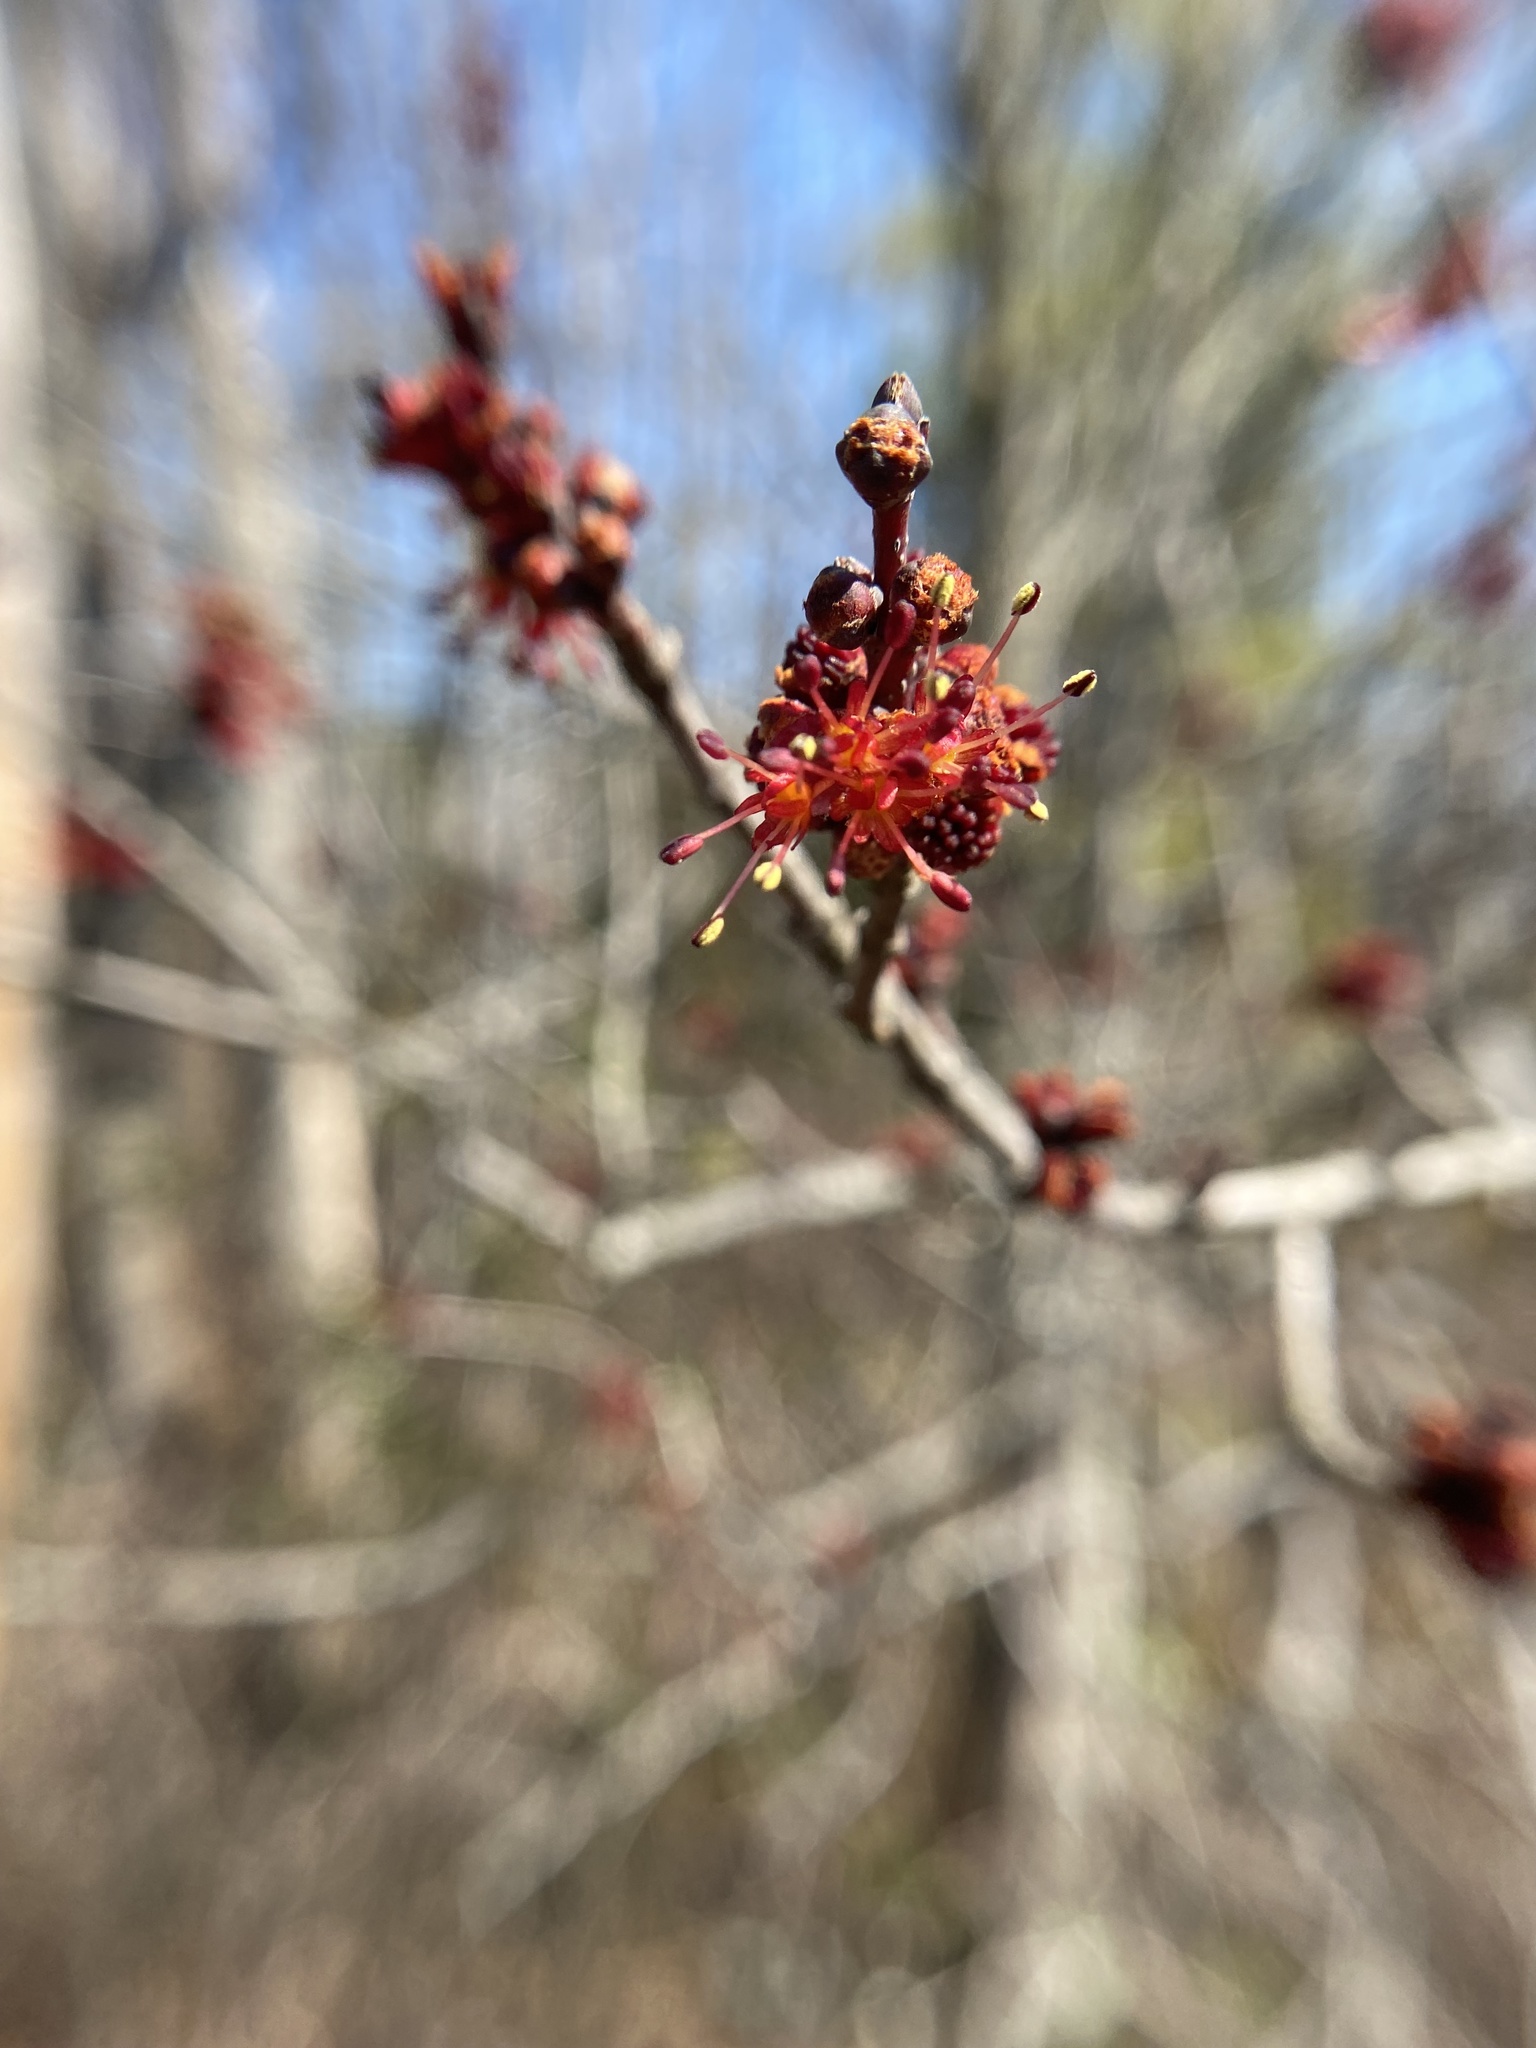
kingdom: Plantae
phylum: Tracheophyta
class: Magnoliopsida
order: Sapindales
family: Sapindaceae
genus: Acer
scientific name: Acer rubrum
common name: Red maple
